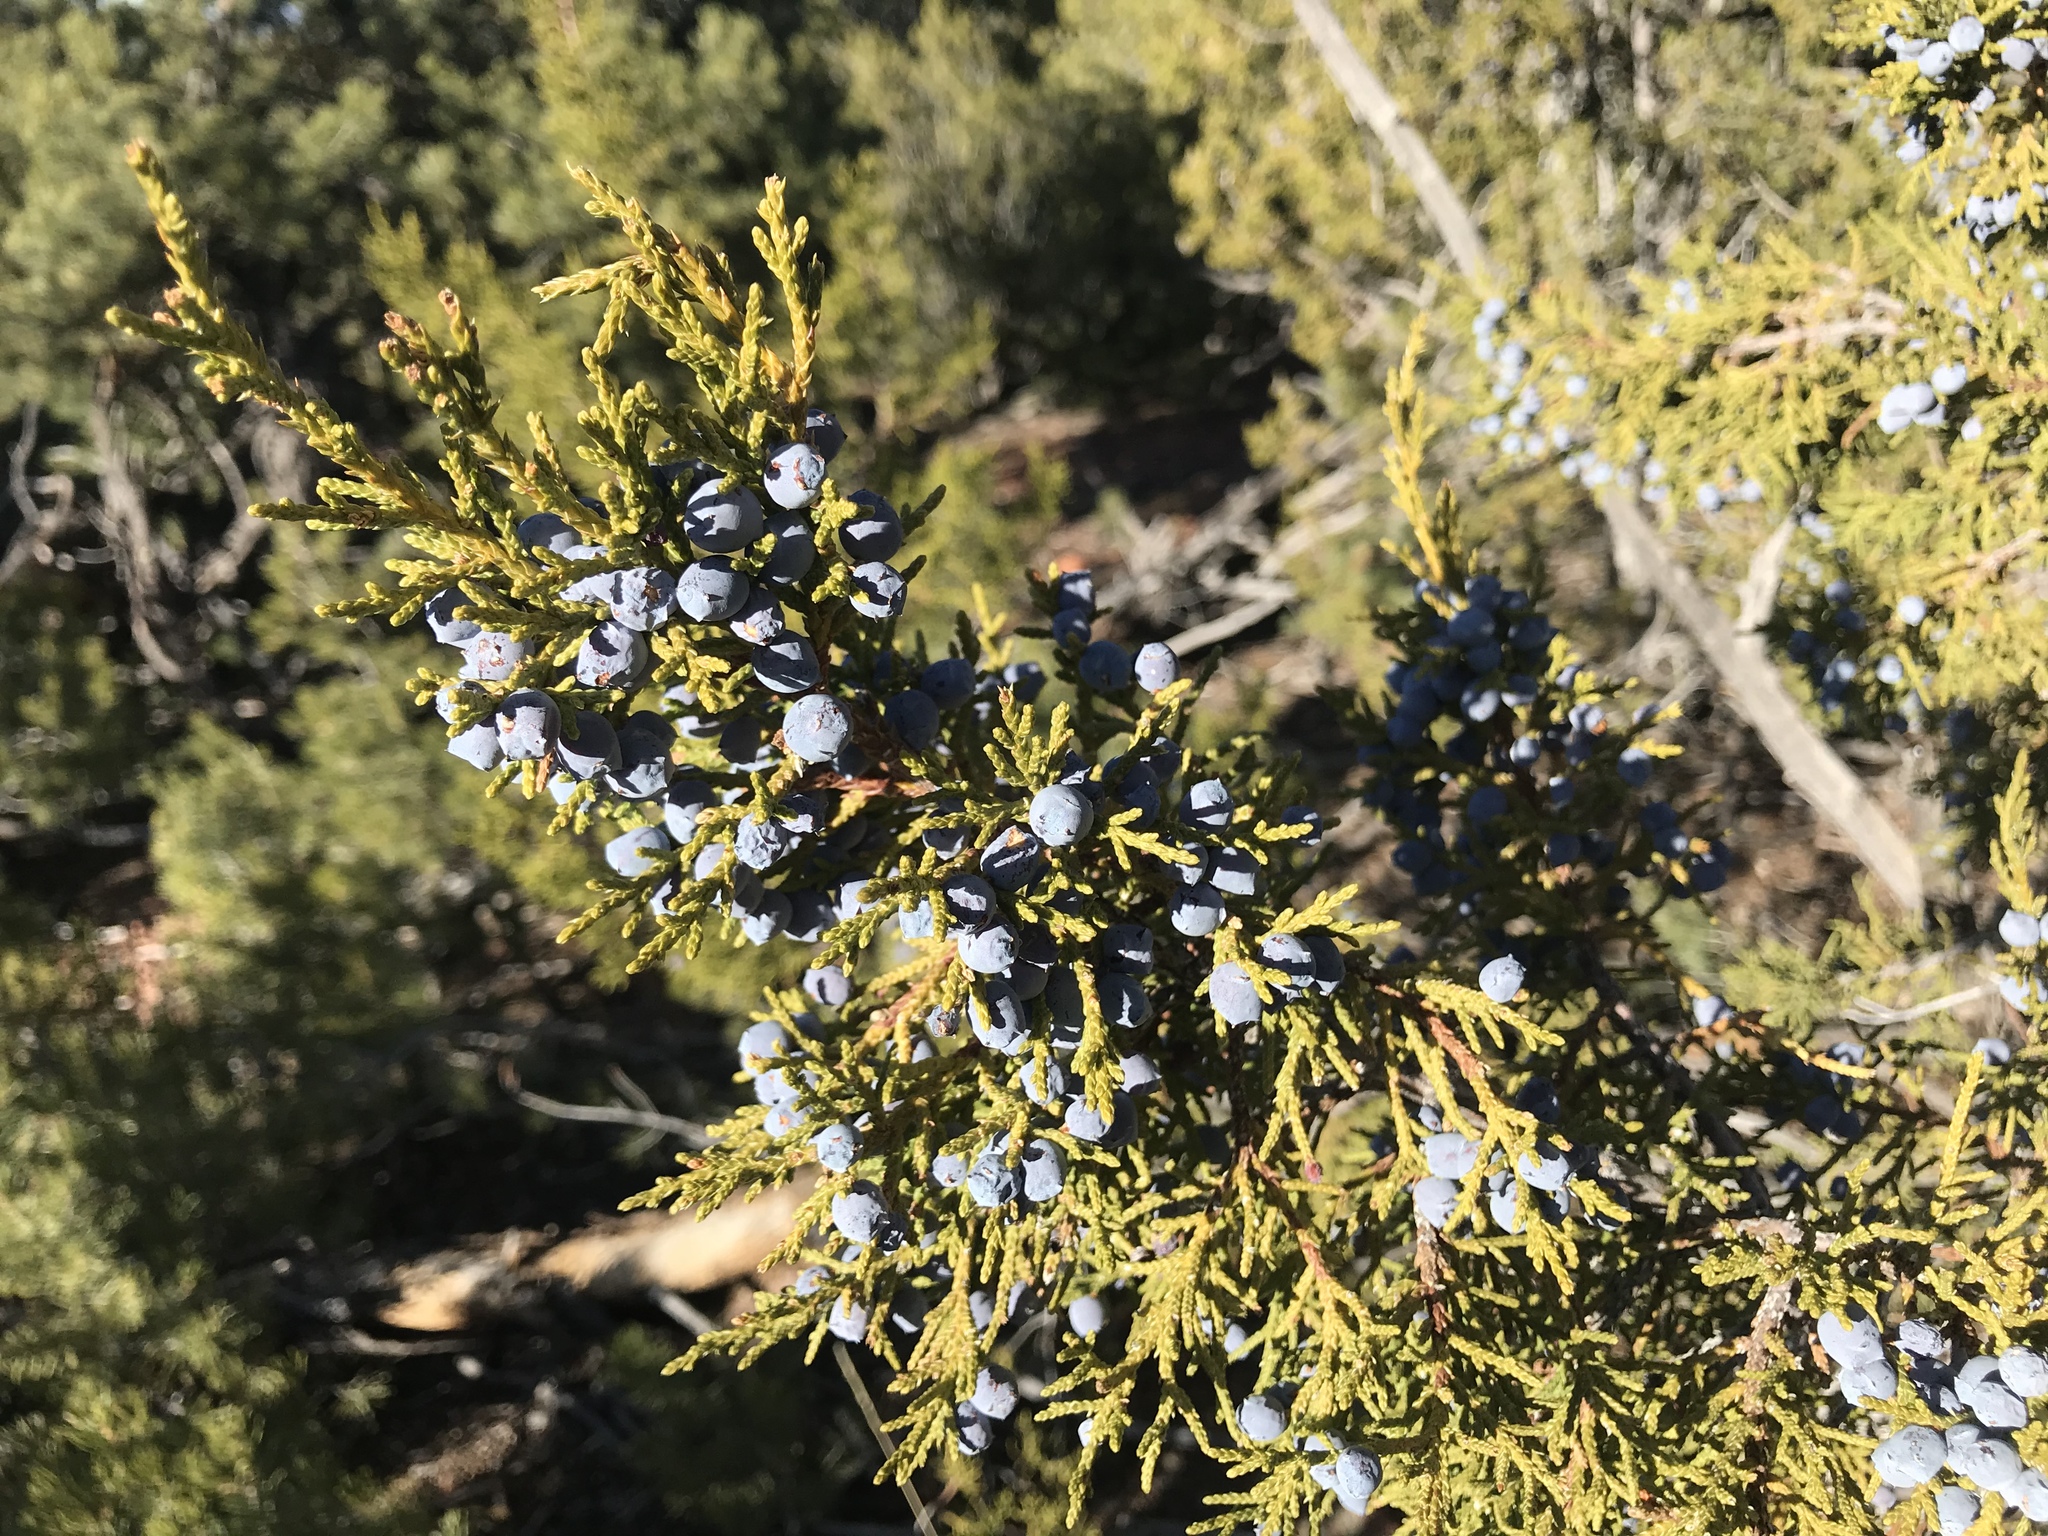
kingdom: Plantae
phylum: Tracheophyta
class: Pinopsida
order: Pinales
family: Cupressaceae
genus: Juniperus
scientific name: Juniperus monosperma
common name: One-seed juniper
